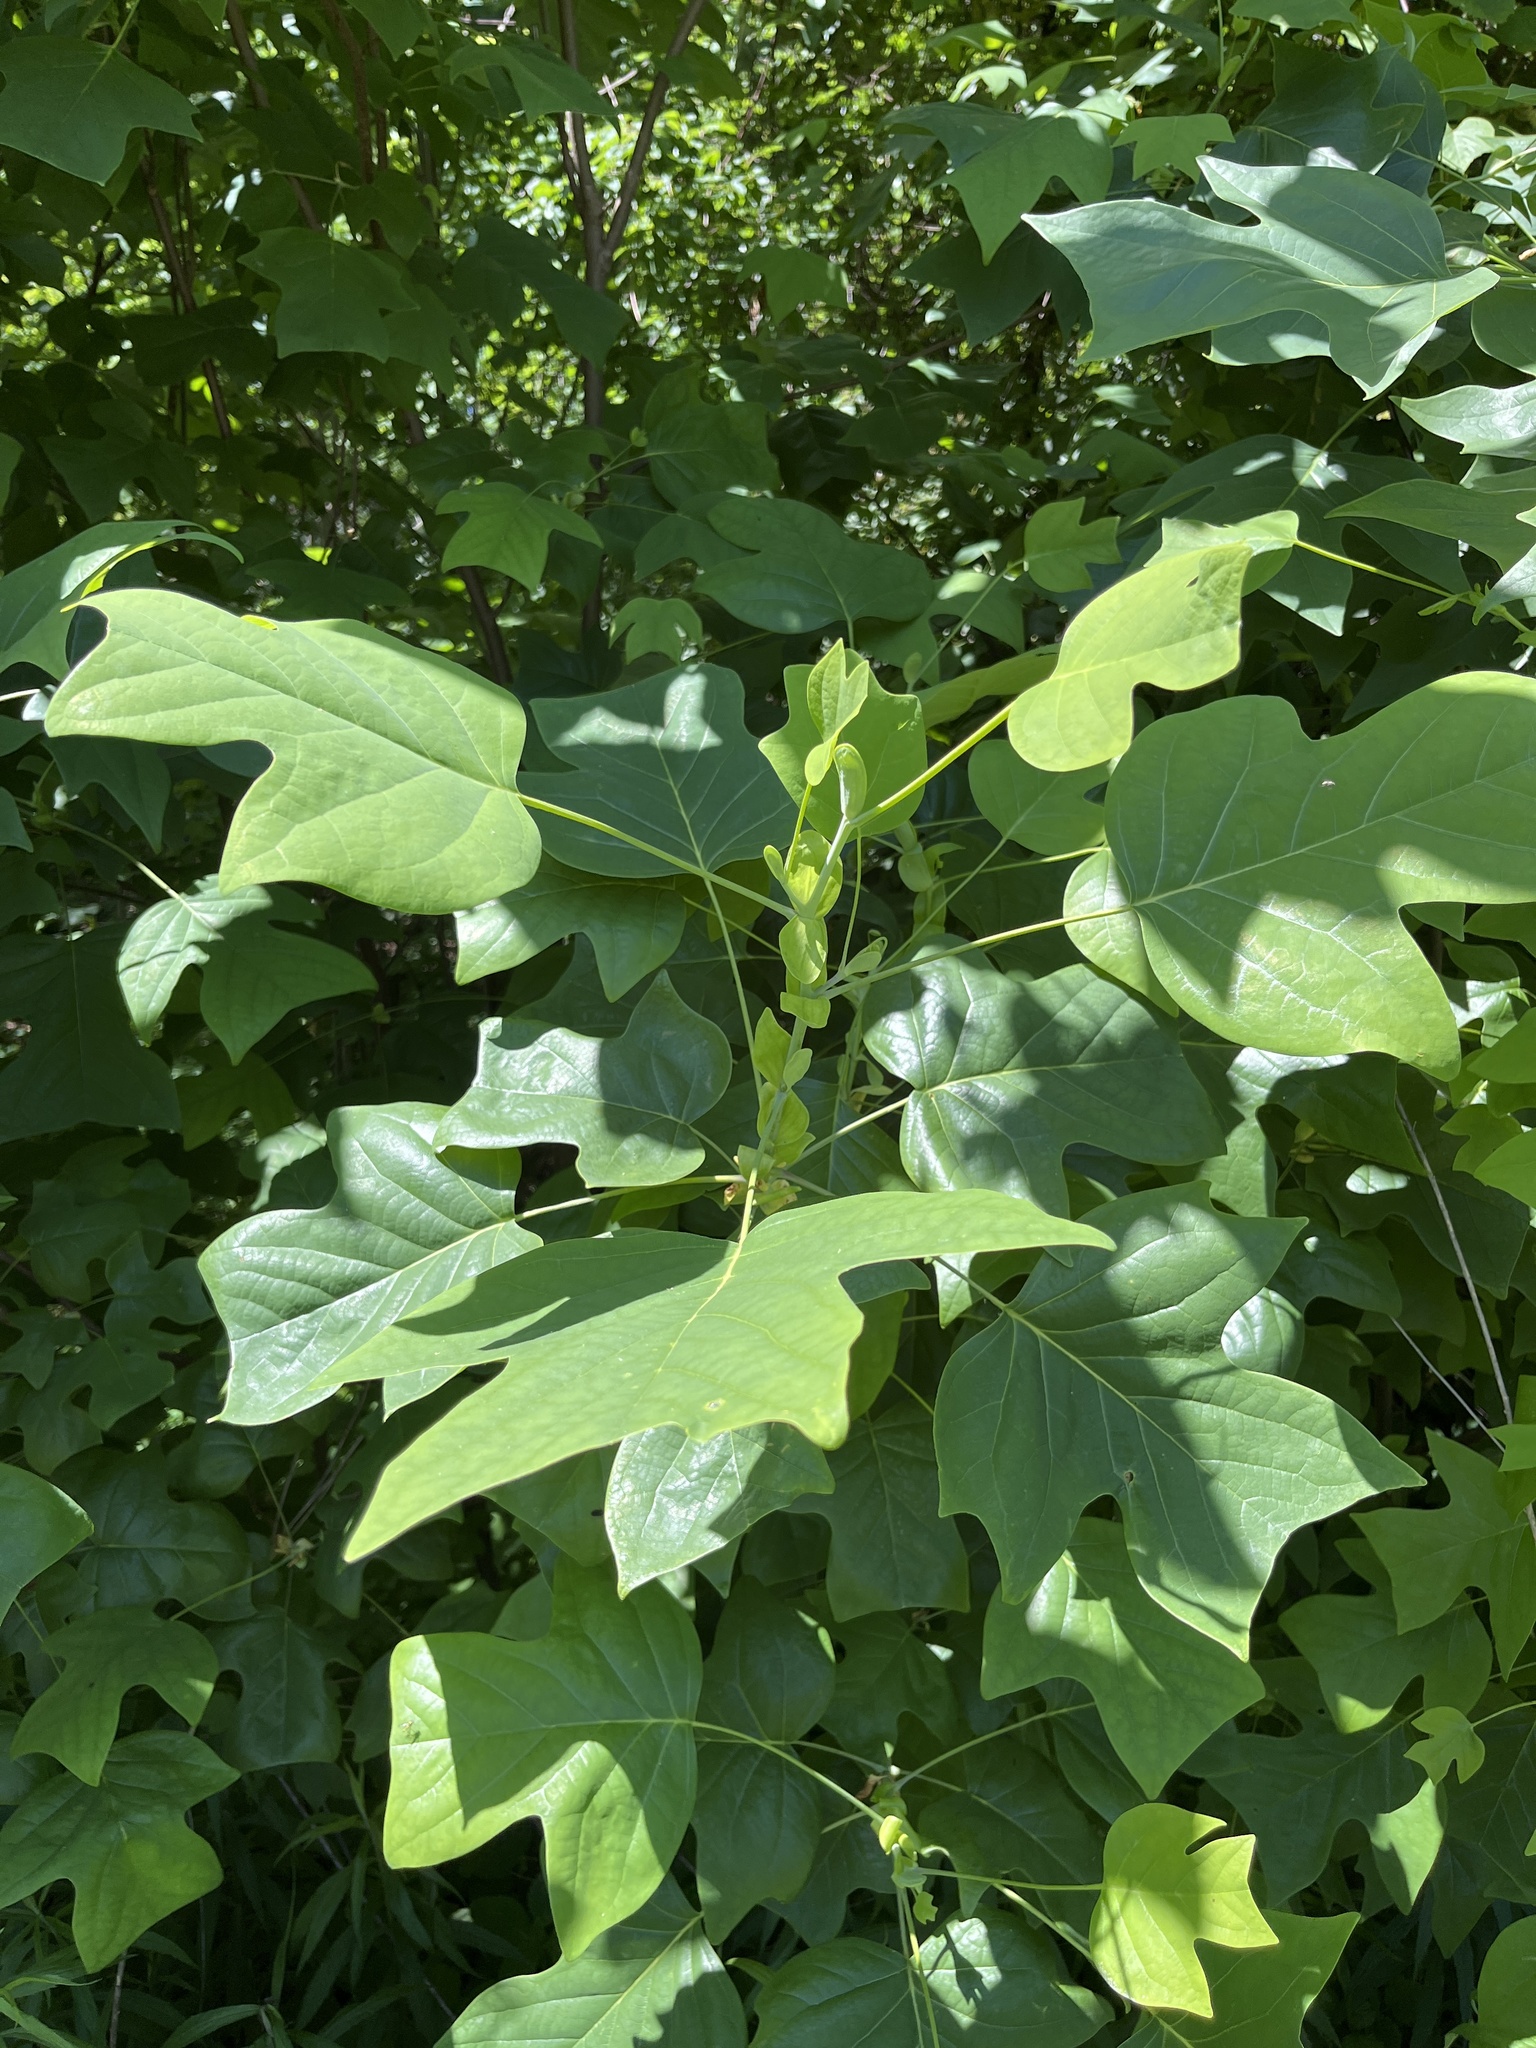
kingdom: Plantae
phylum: Tracheophyta
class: Magnoliopsida
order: Magnoliales
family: Magnoliaceae
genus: Liriodendron
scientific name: Liriodendron tulipifera
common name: Tulip tree
